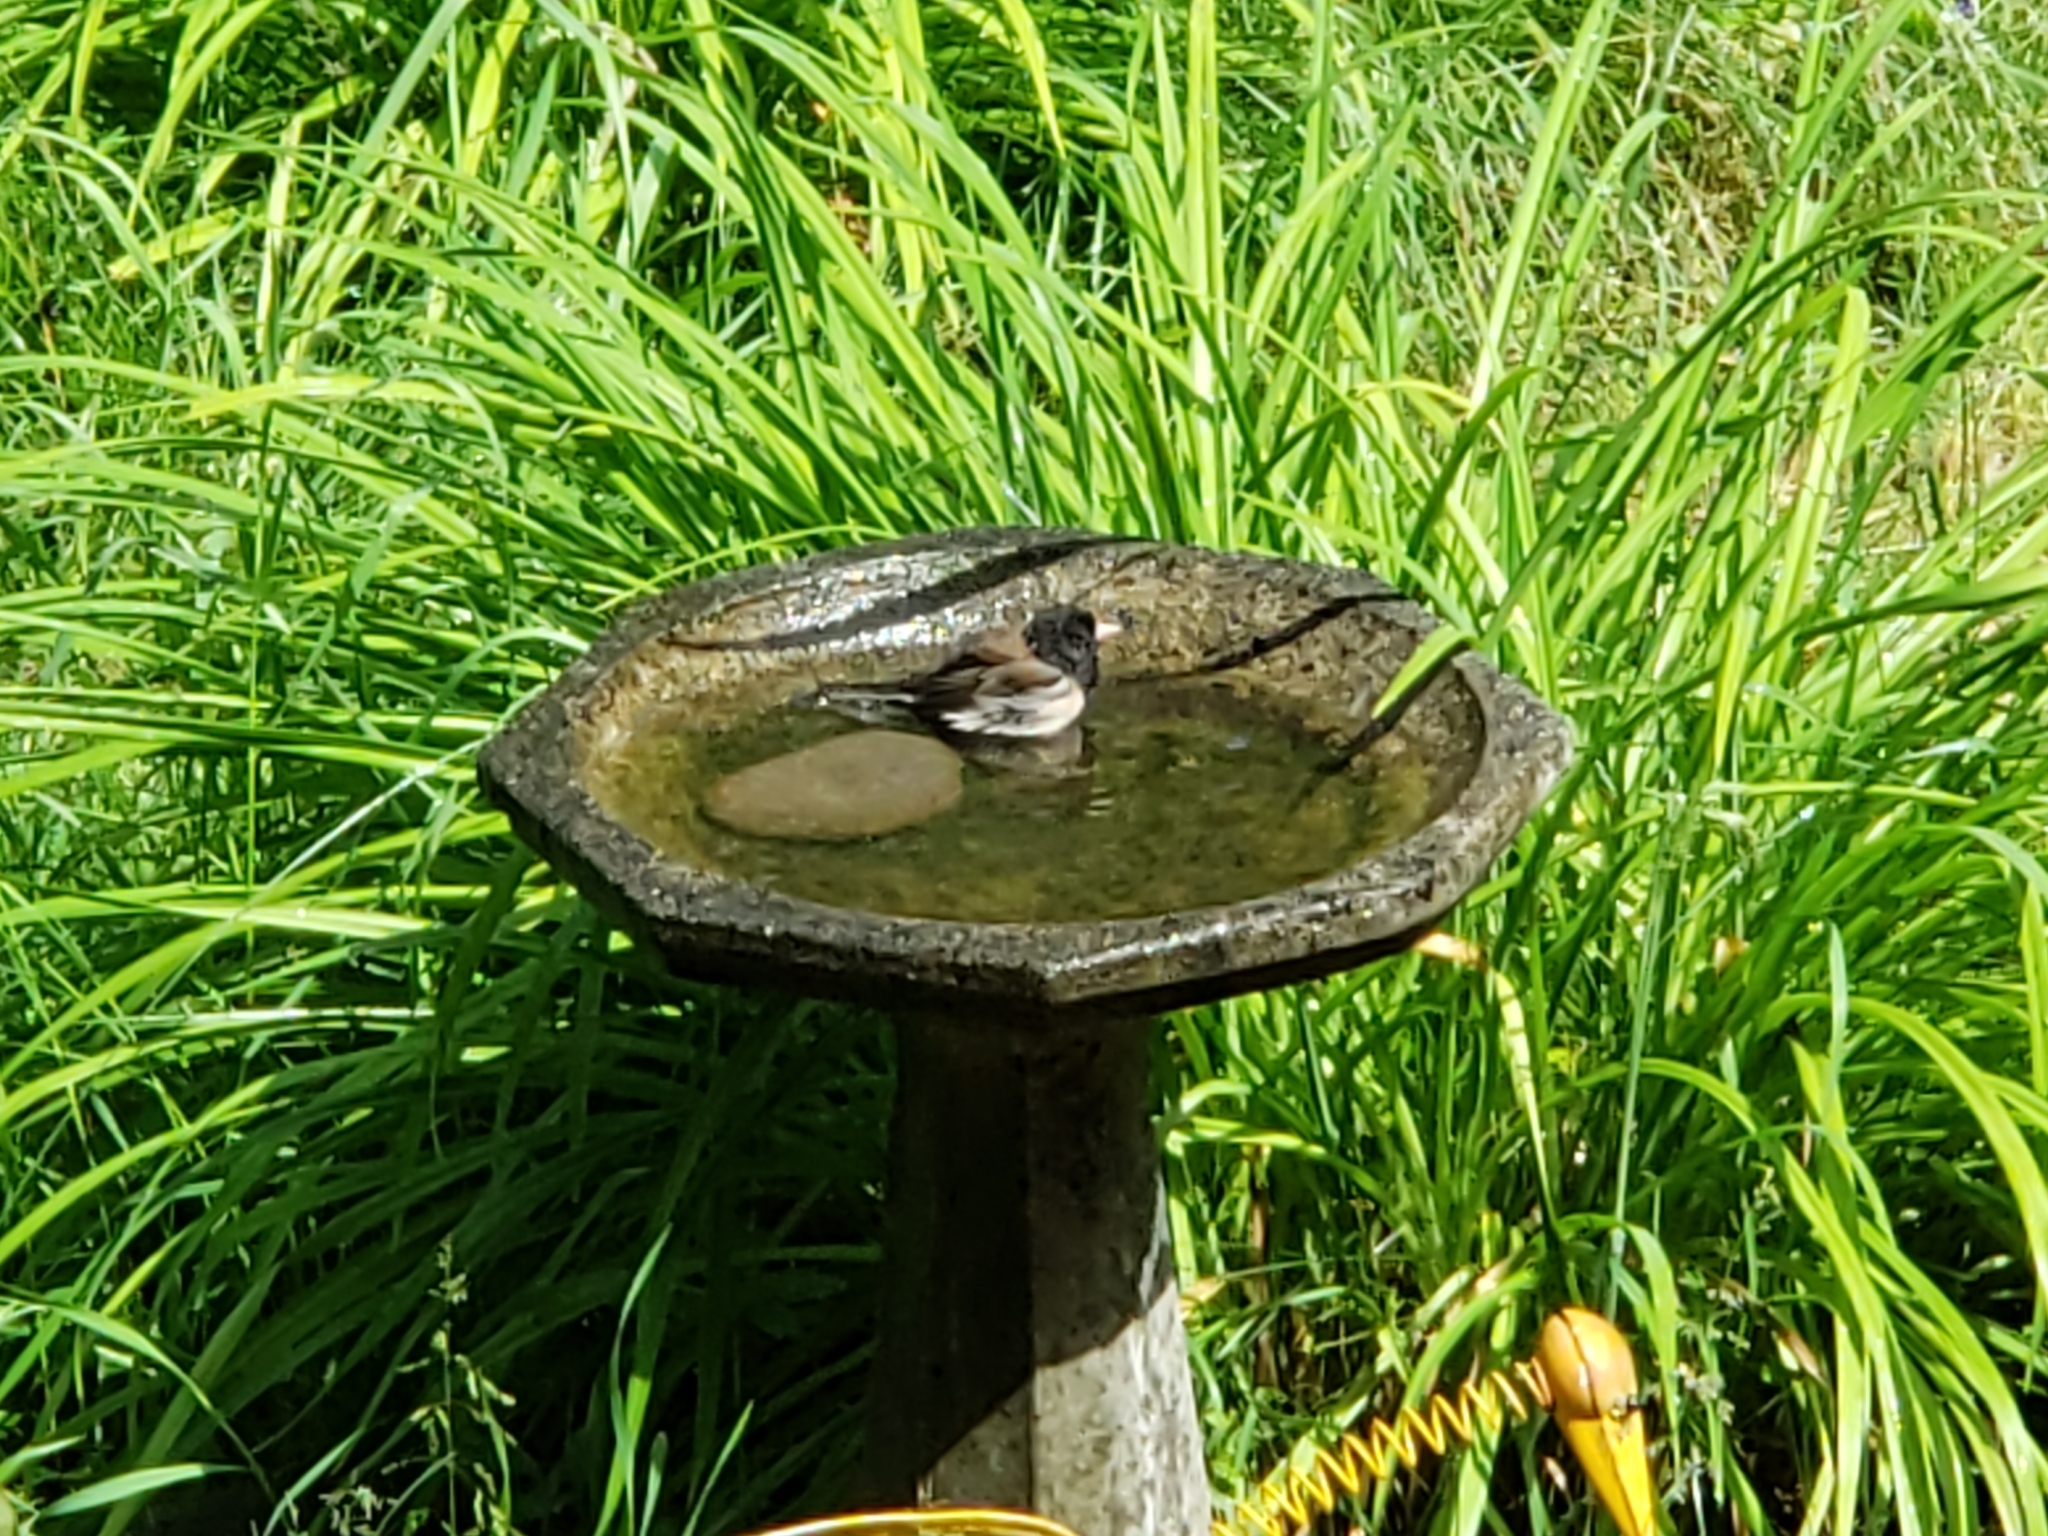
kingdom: Animalia
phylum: Chordata
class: Aves
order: Passeriformes
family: Passerellidae
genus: Junco
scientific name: Junco hyemalis
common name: Dark-eyed junco
